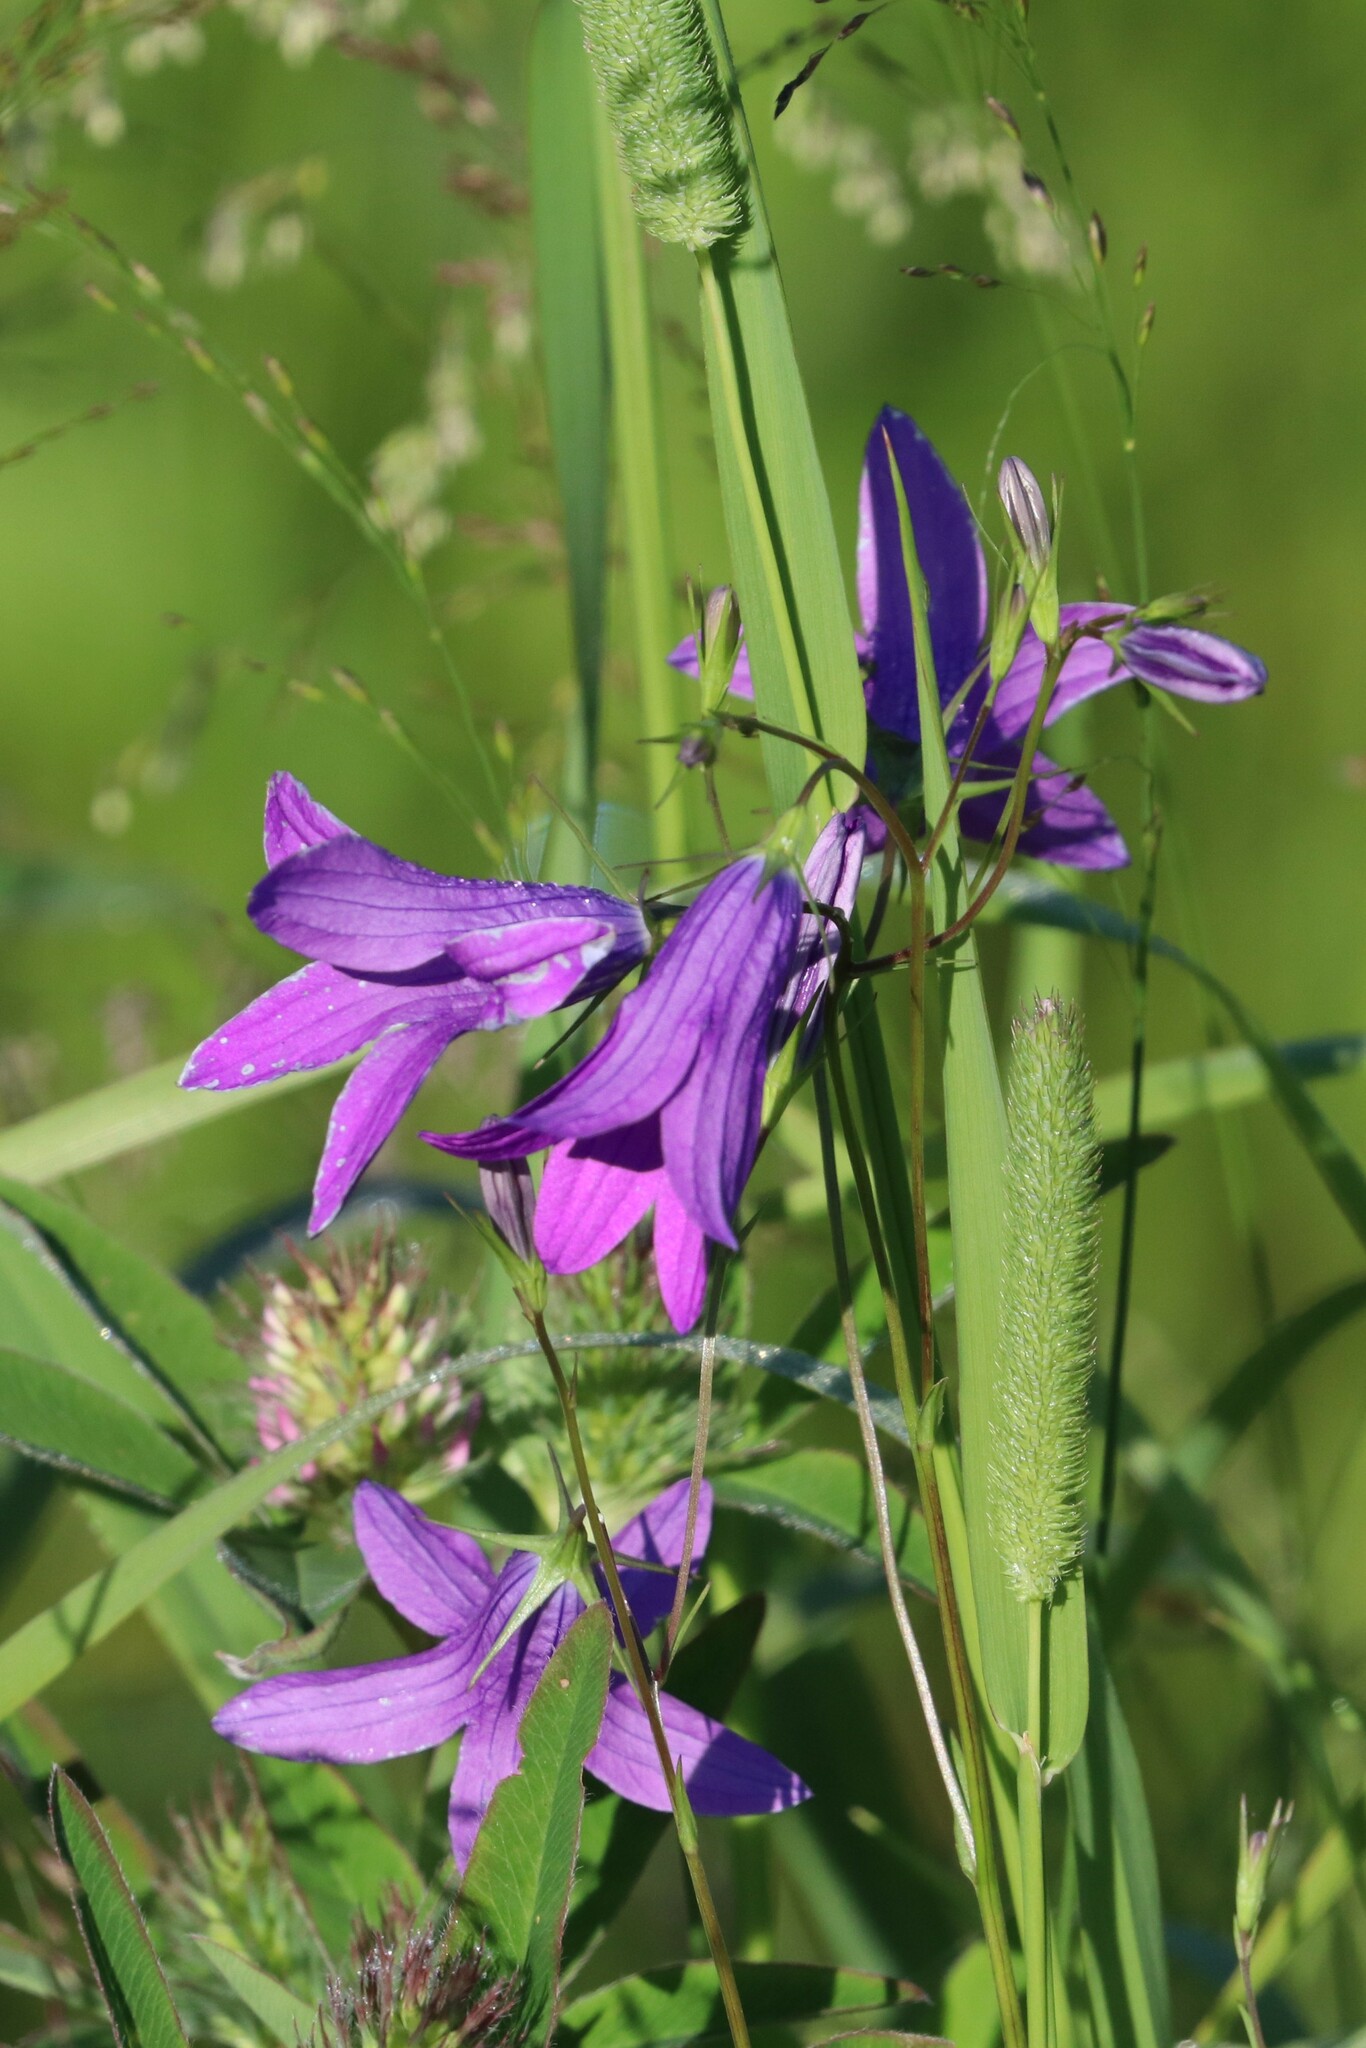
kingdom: Plantae
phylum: Tracheophyta
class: Magnoliopsida
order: Asterales
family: Campanulaceae
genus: Campanula
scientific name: Campanula patula
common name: Spreading bellflower
